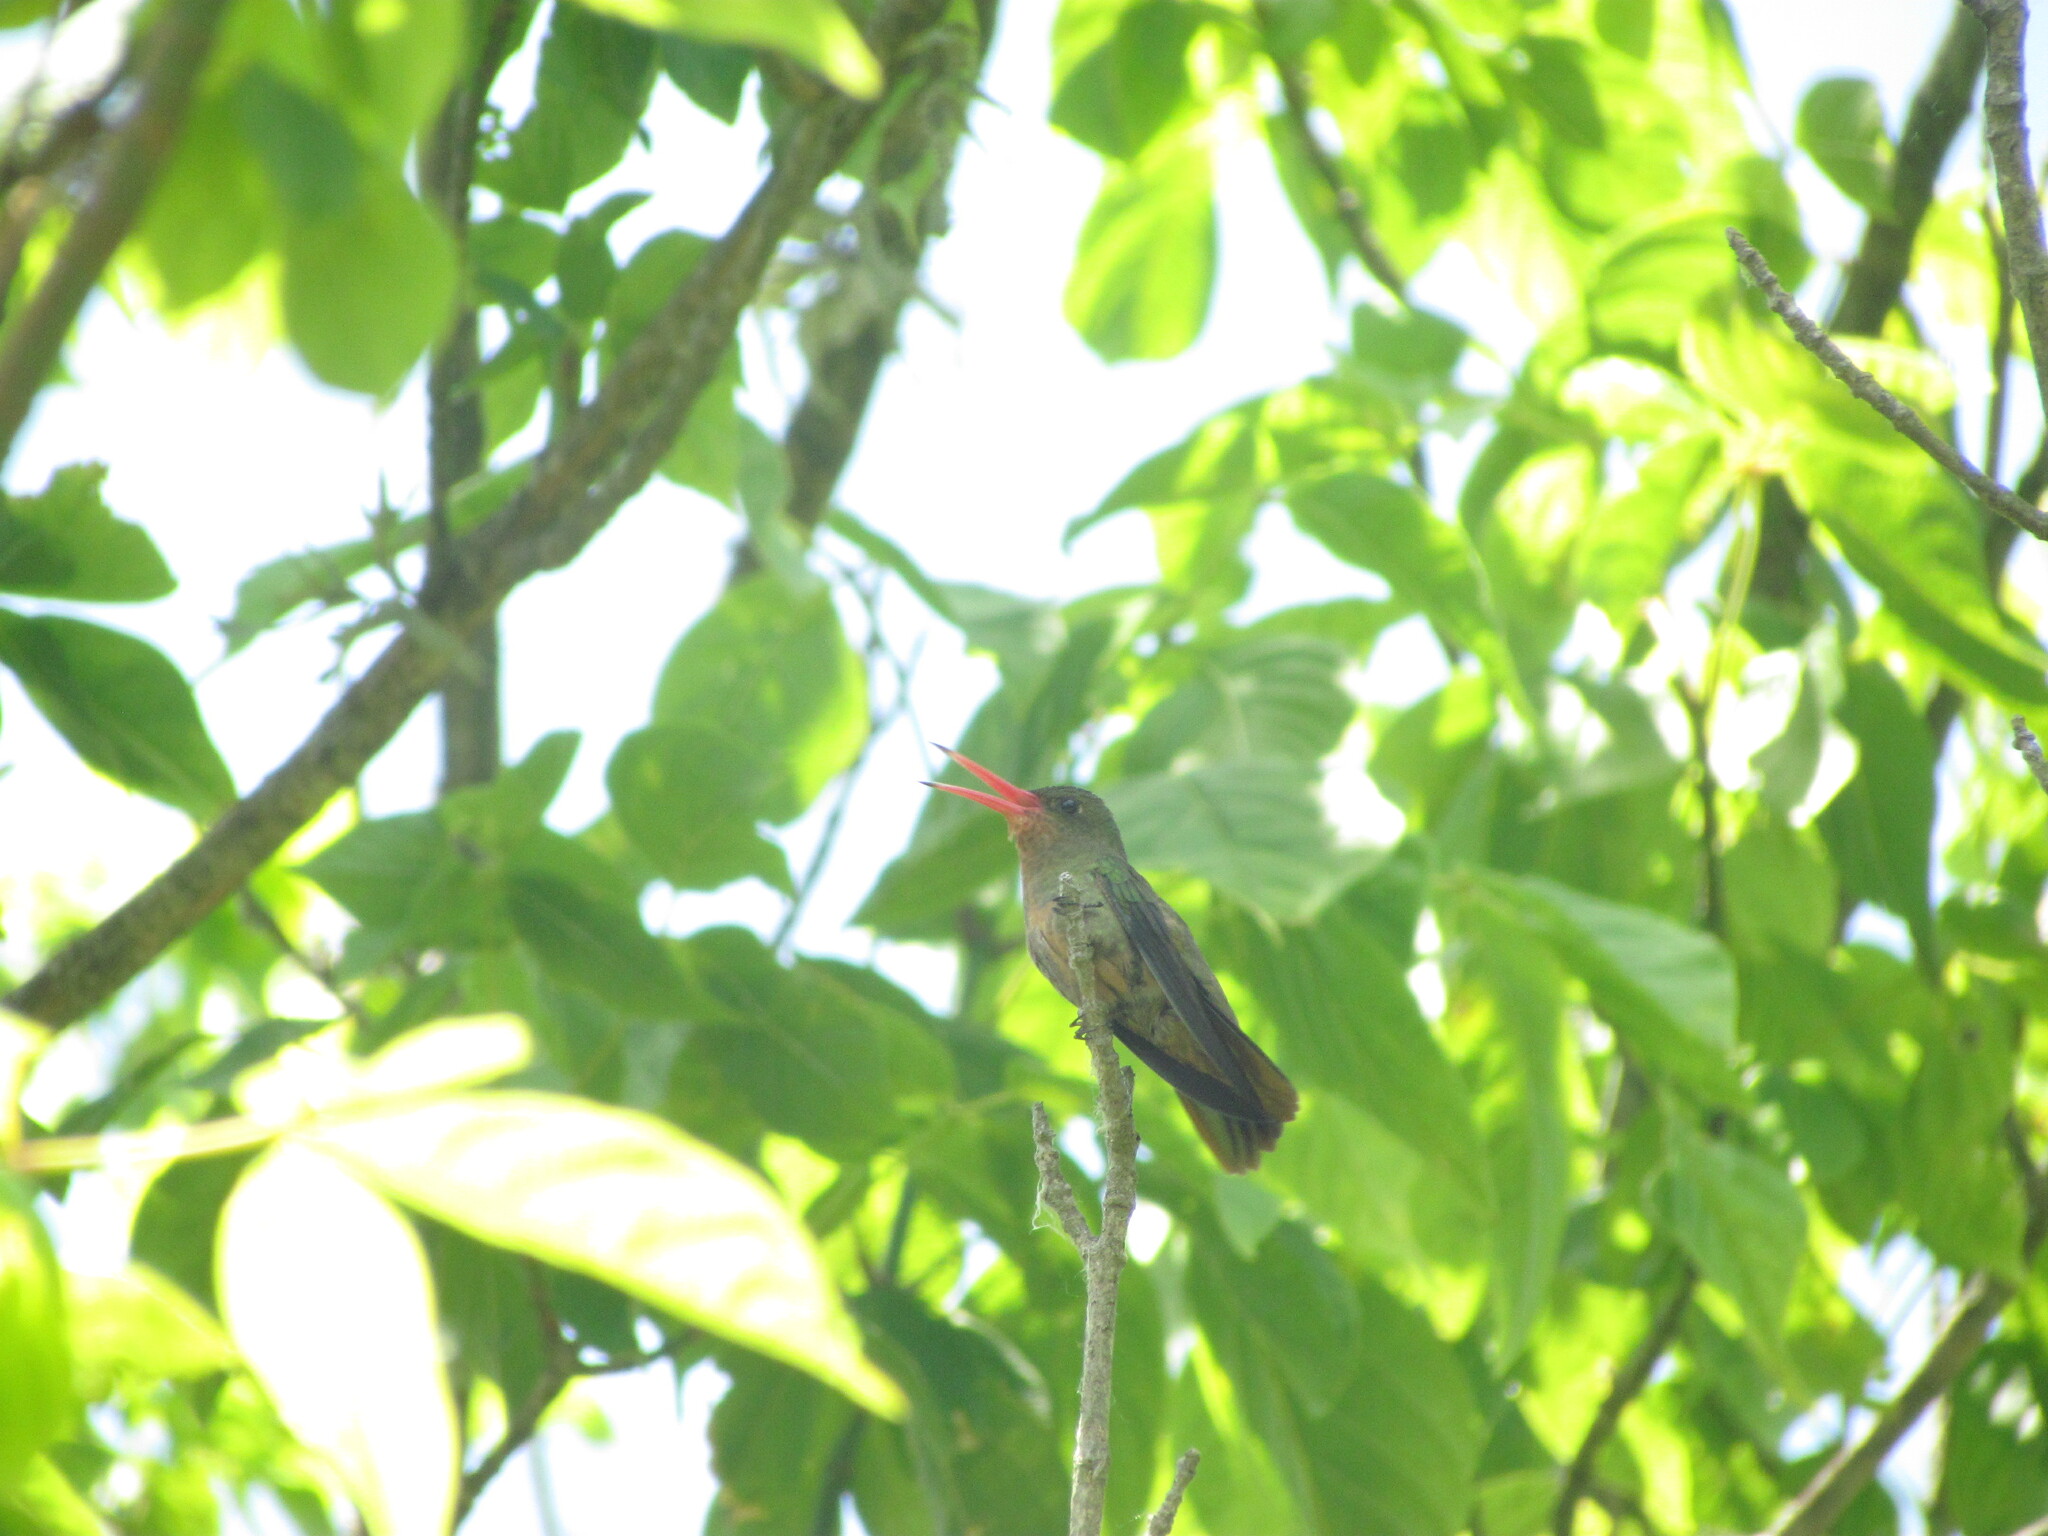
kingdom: Animalia
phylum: Chordata
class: Aves
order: Apodiformes
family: Trochilidae
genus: Hylocharis
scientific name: Hylocharis chrysura
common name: Gilded sapphire
